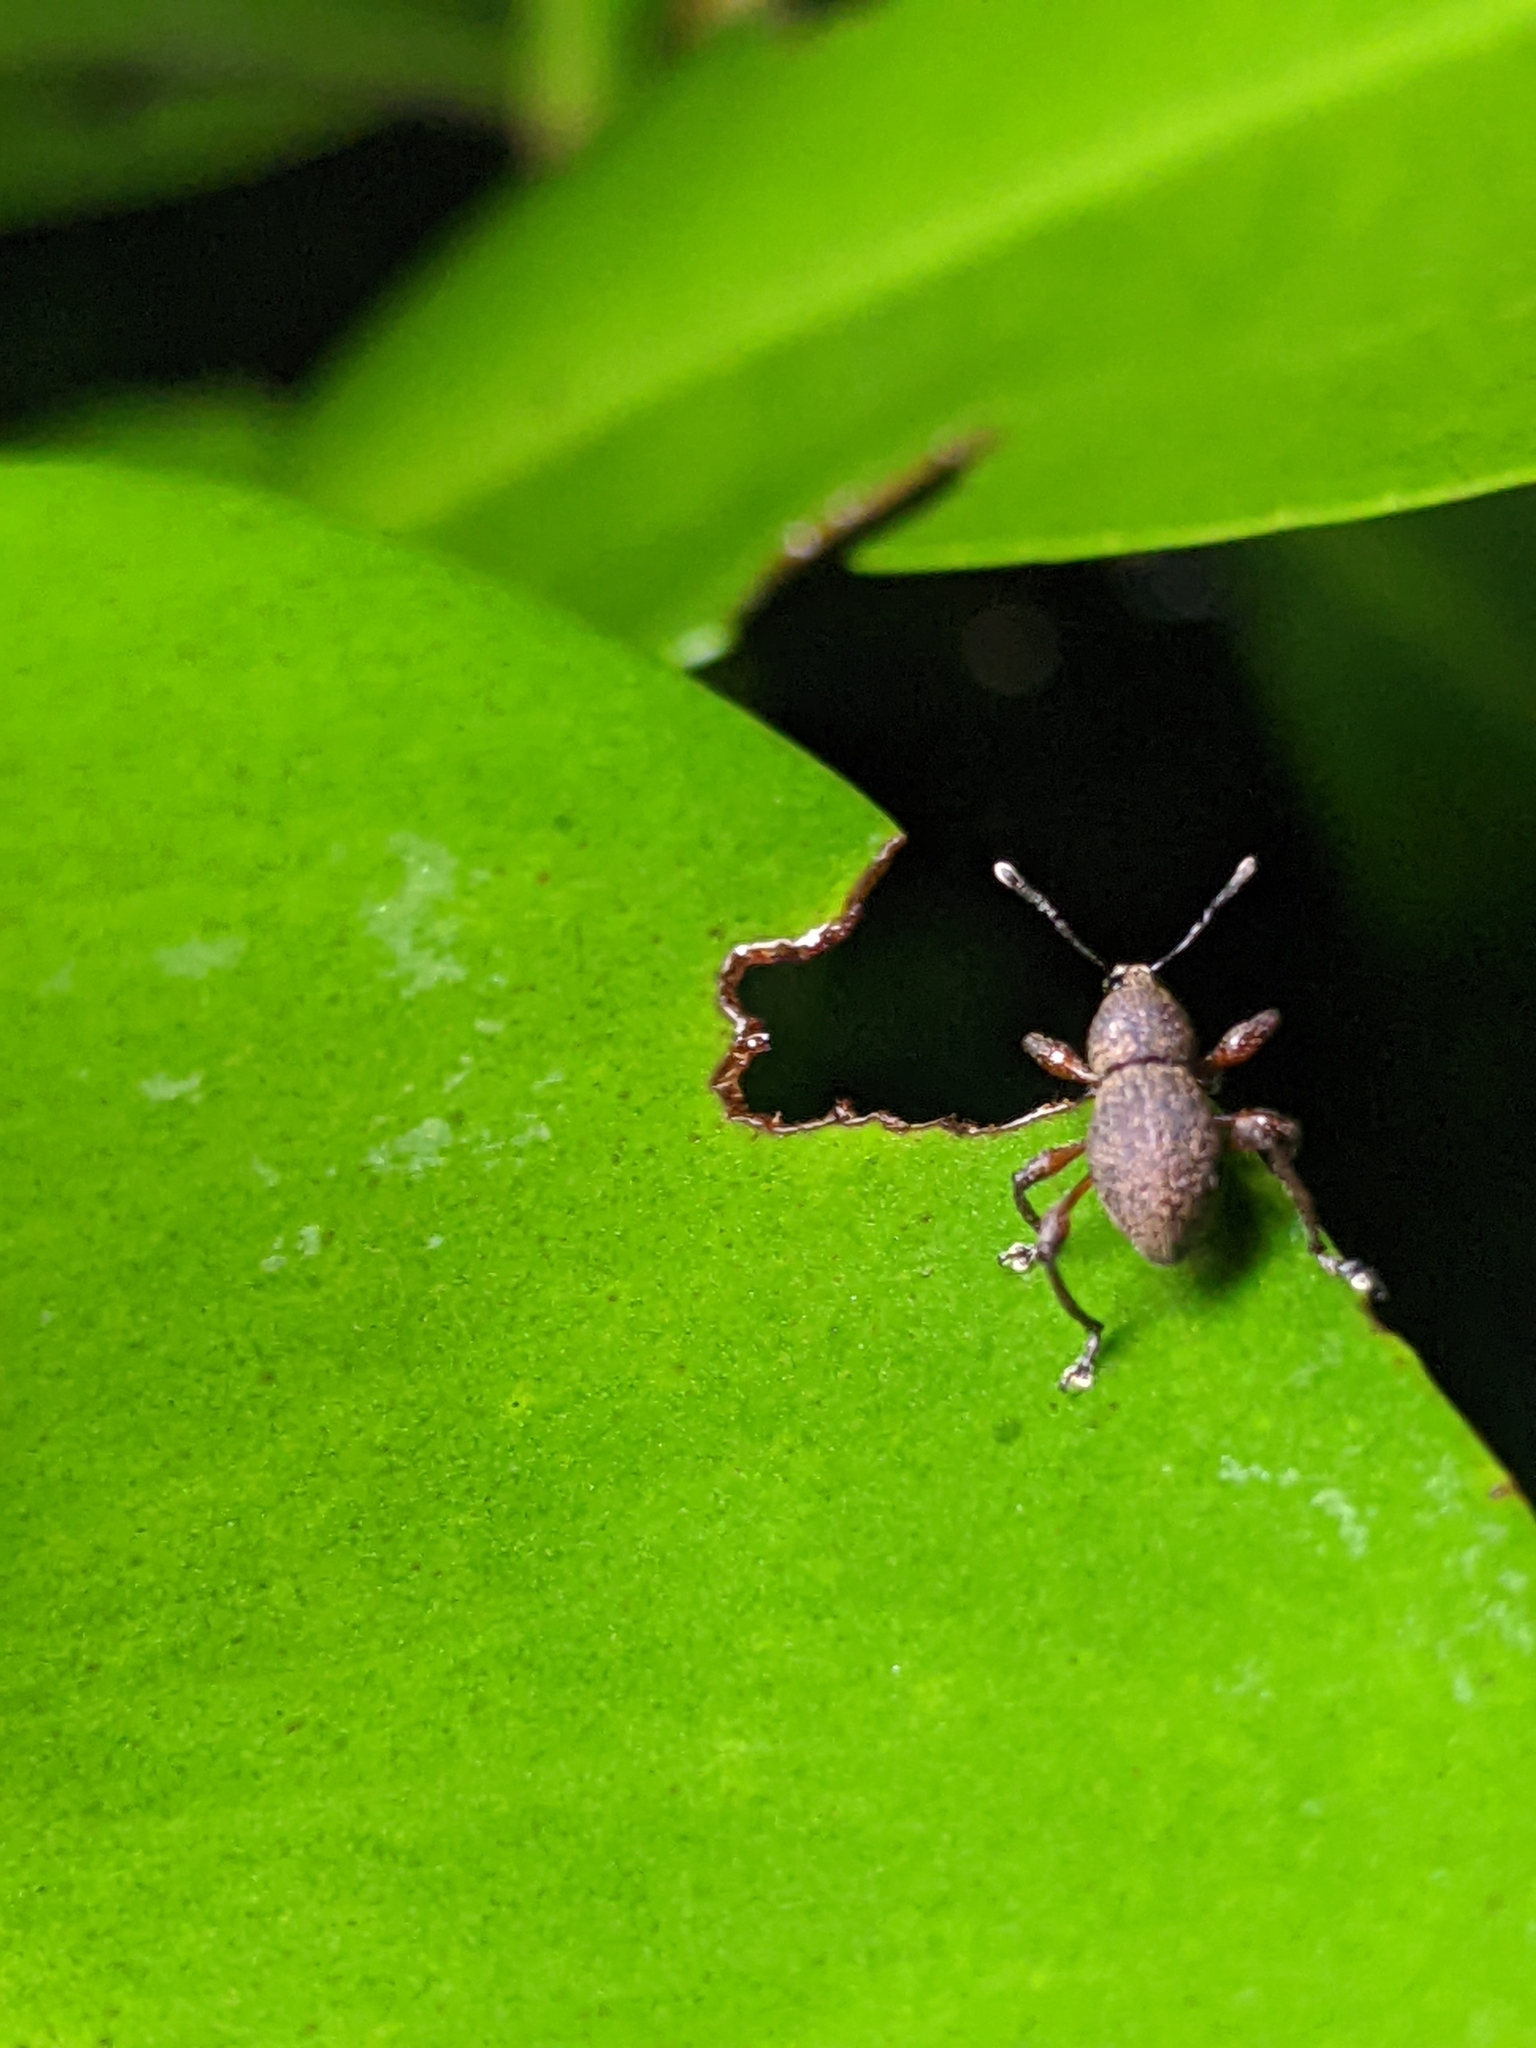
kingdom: Animalia
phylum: Arthropoda
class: Insecta
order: Coleoptera
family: Curculionidae
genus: Metapocyrtus
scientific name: Metapocyrtus adspersus
